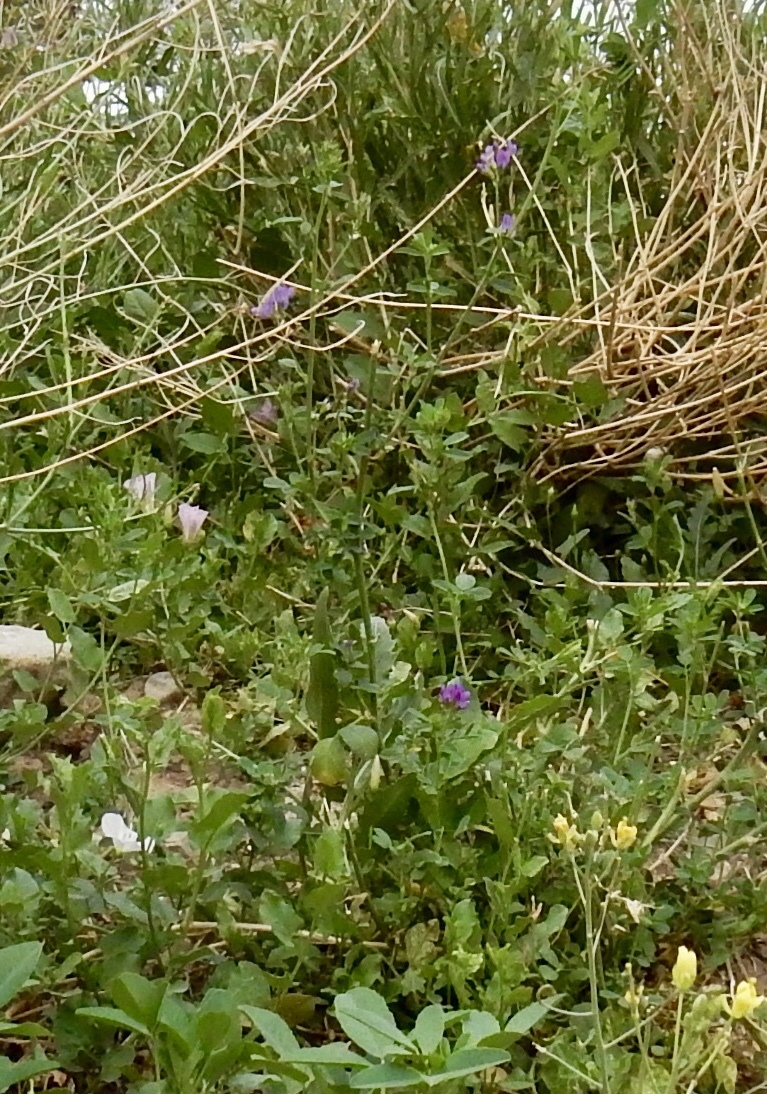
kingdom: Plantae
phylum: Tracheophyta
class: Magnoliopsida
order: Fabales
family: Fabaceae
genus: Medicago
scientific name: Medicago sativa
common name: Alfalfa
